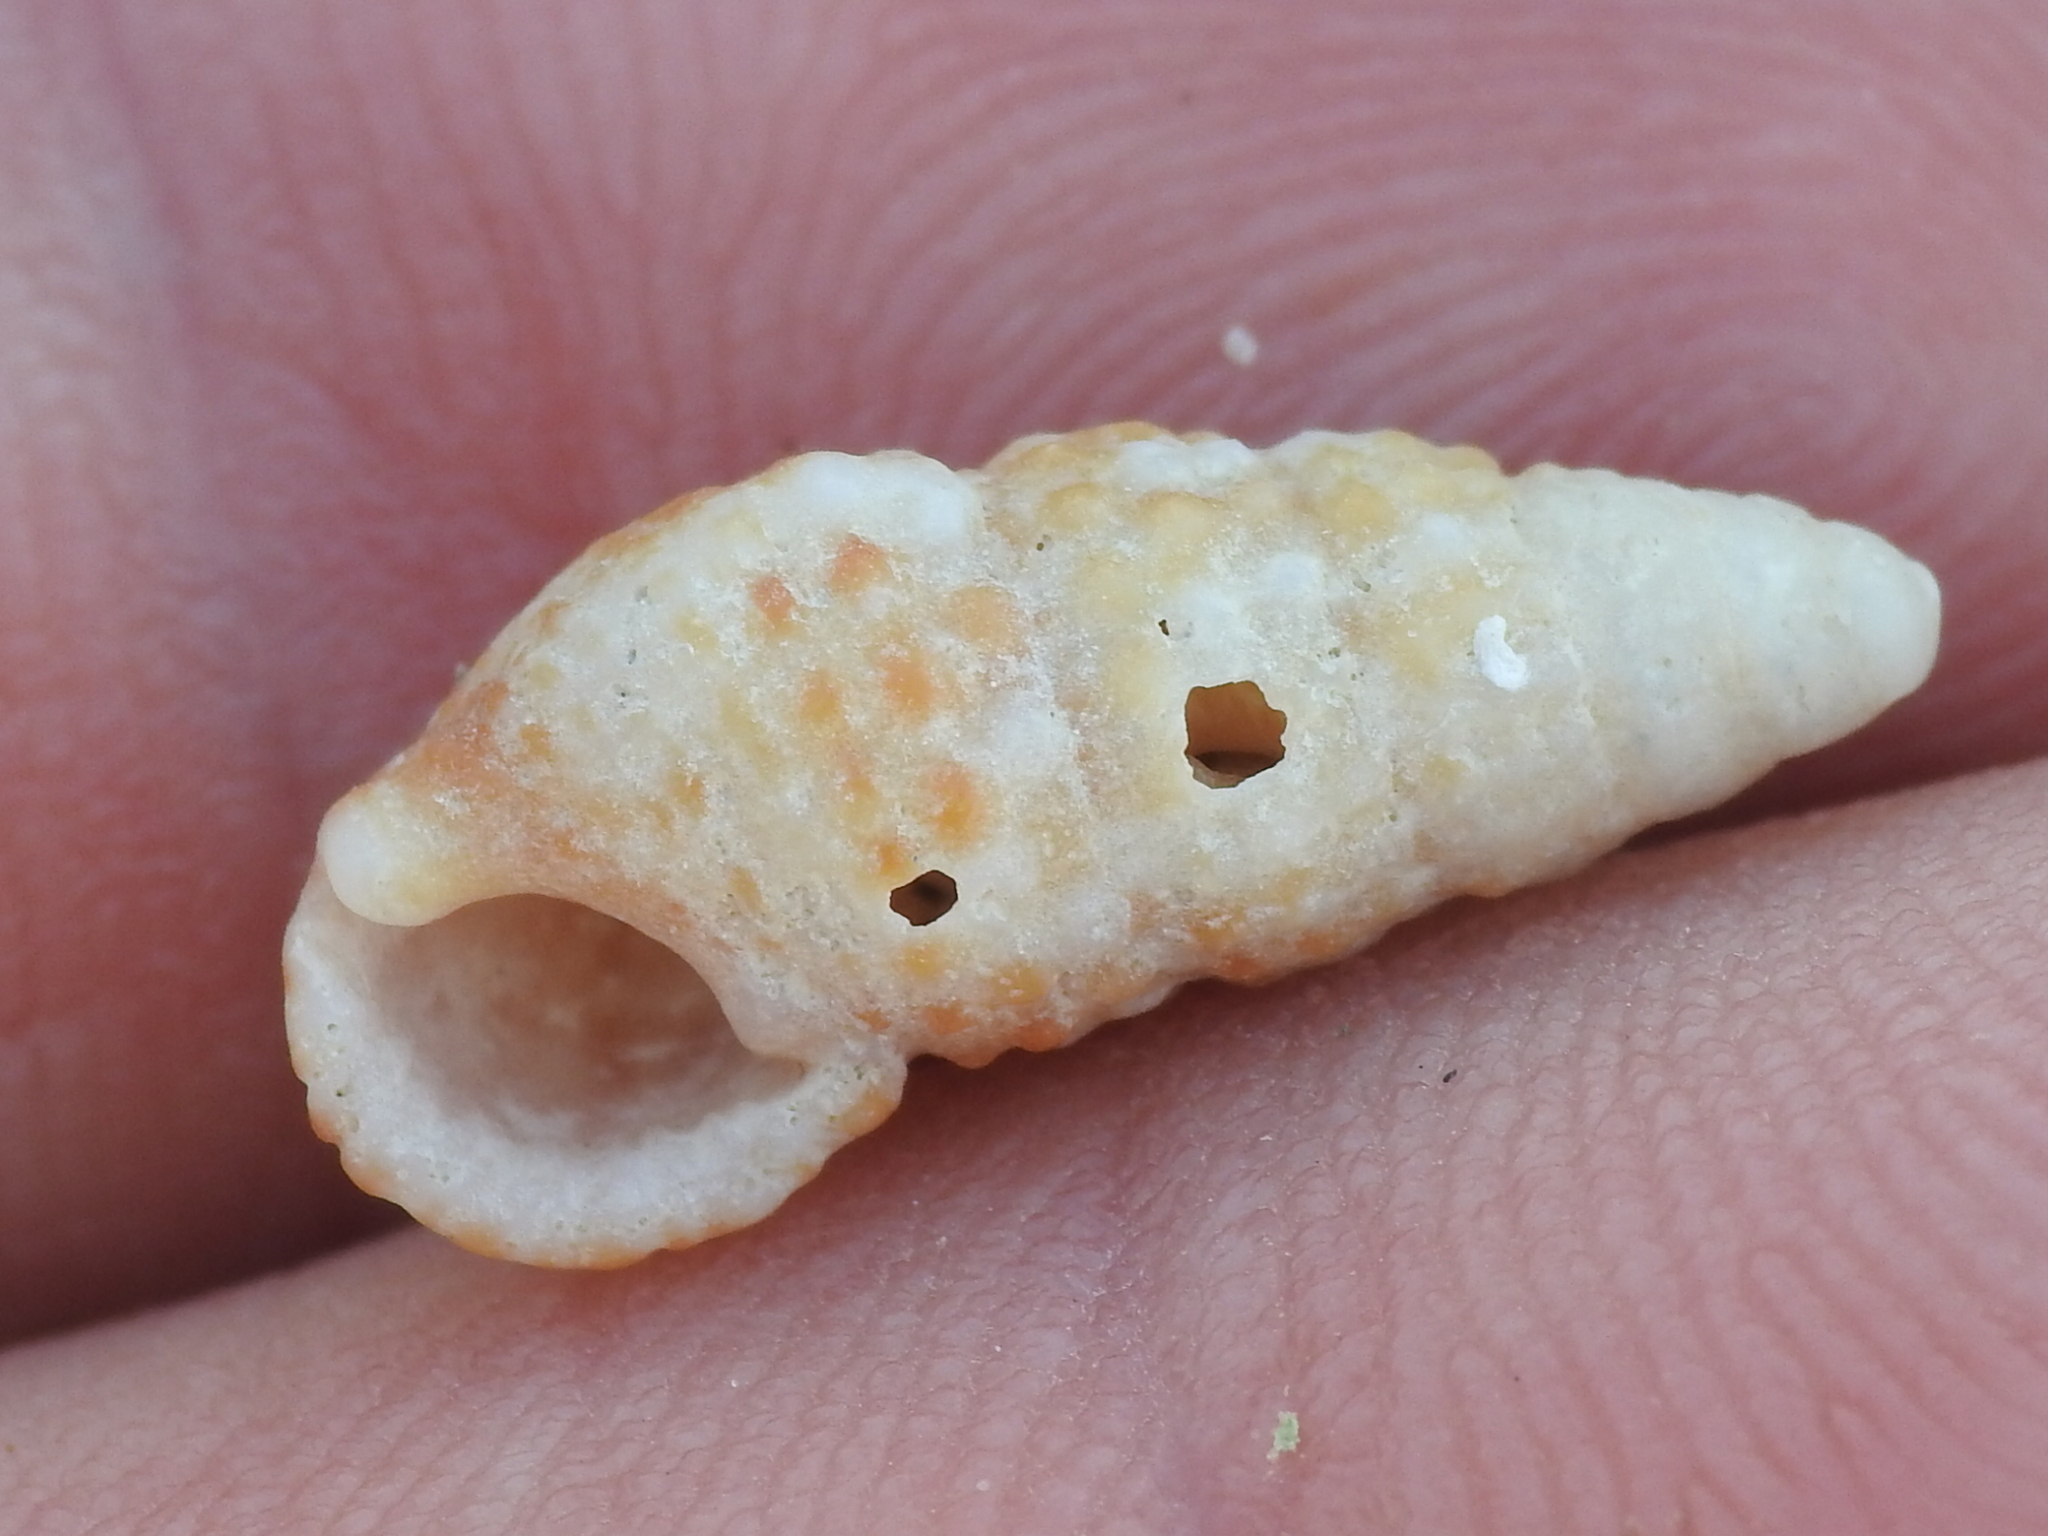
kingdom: Animalia
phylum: Mollusca
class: Gastropoda
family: Cerithiidae
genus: Cerithium
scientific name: Cerithium lutosum
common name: Dwarf atlantic cerith
